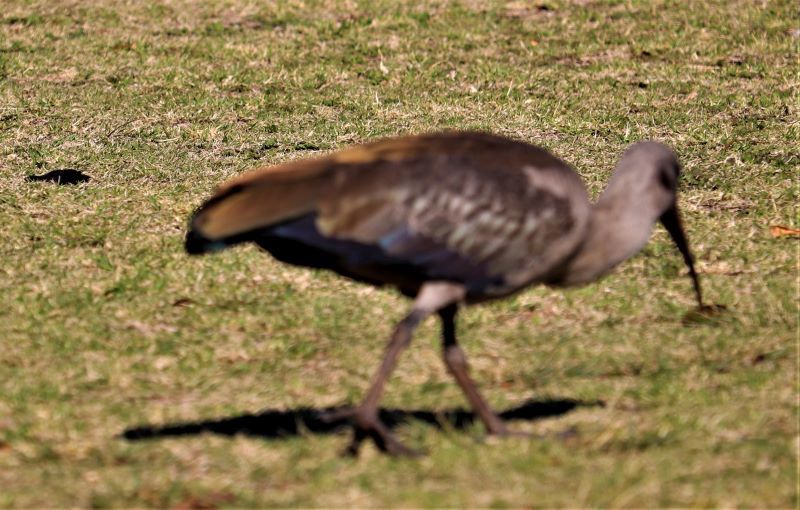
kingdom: Animalia
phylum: Chordata
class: Aves
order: Pelecaniformes
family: Threskiornithidae
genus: Bostrychia
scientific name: Bostrychia hagedash
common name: Hadada ibis
